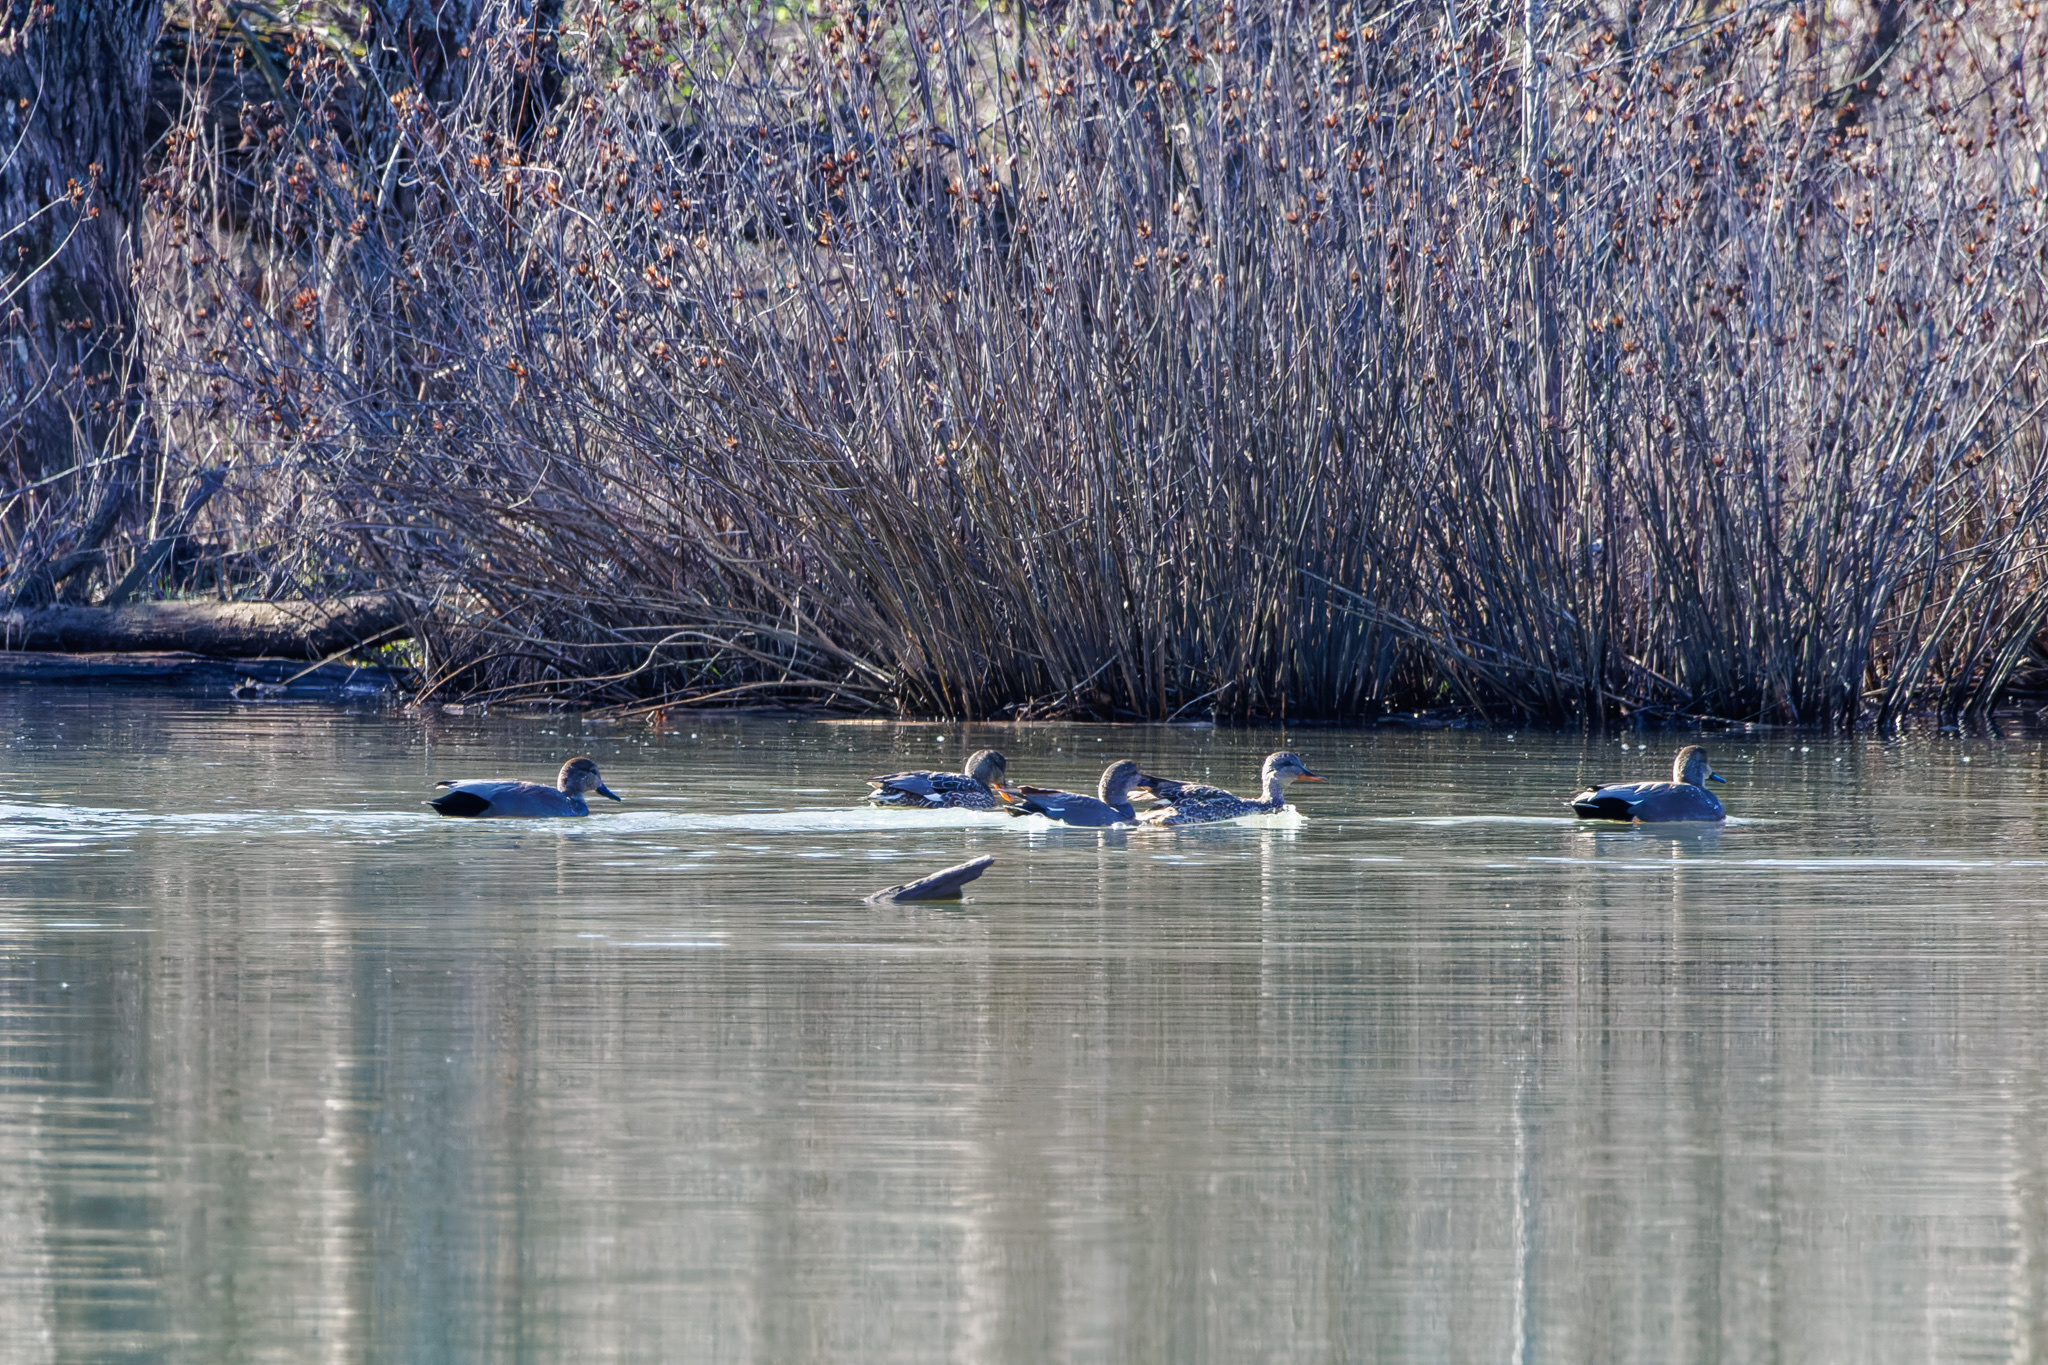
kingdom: Animalia
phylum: Chordata
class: Aves
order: Anseriformes
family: Anatidae
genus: Mareca
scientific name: Mareca strepera
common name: Gadwall
